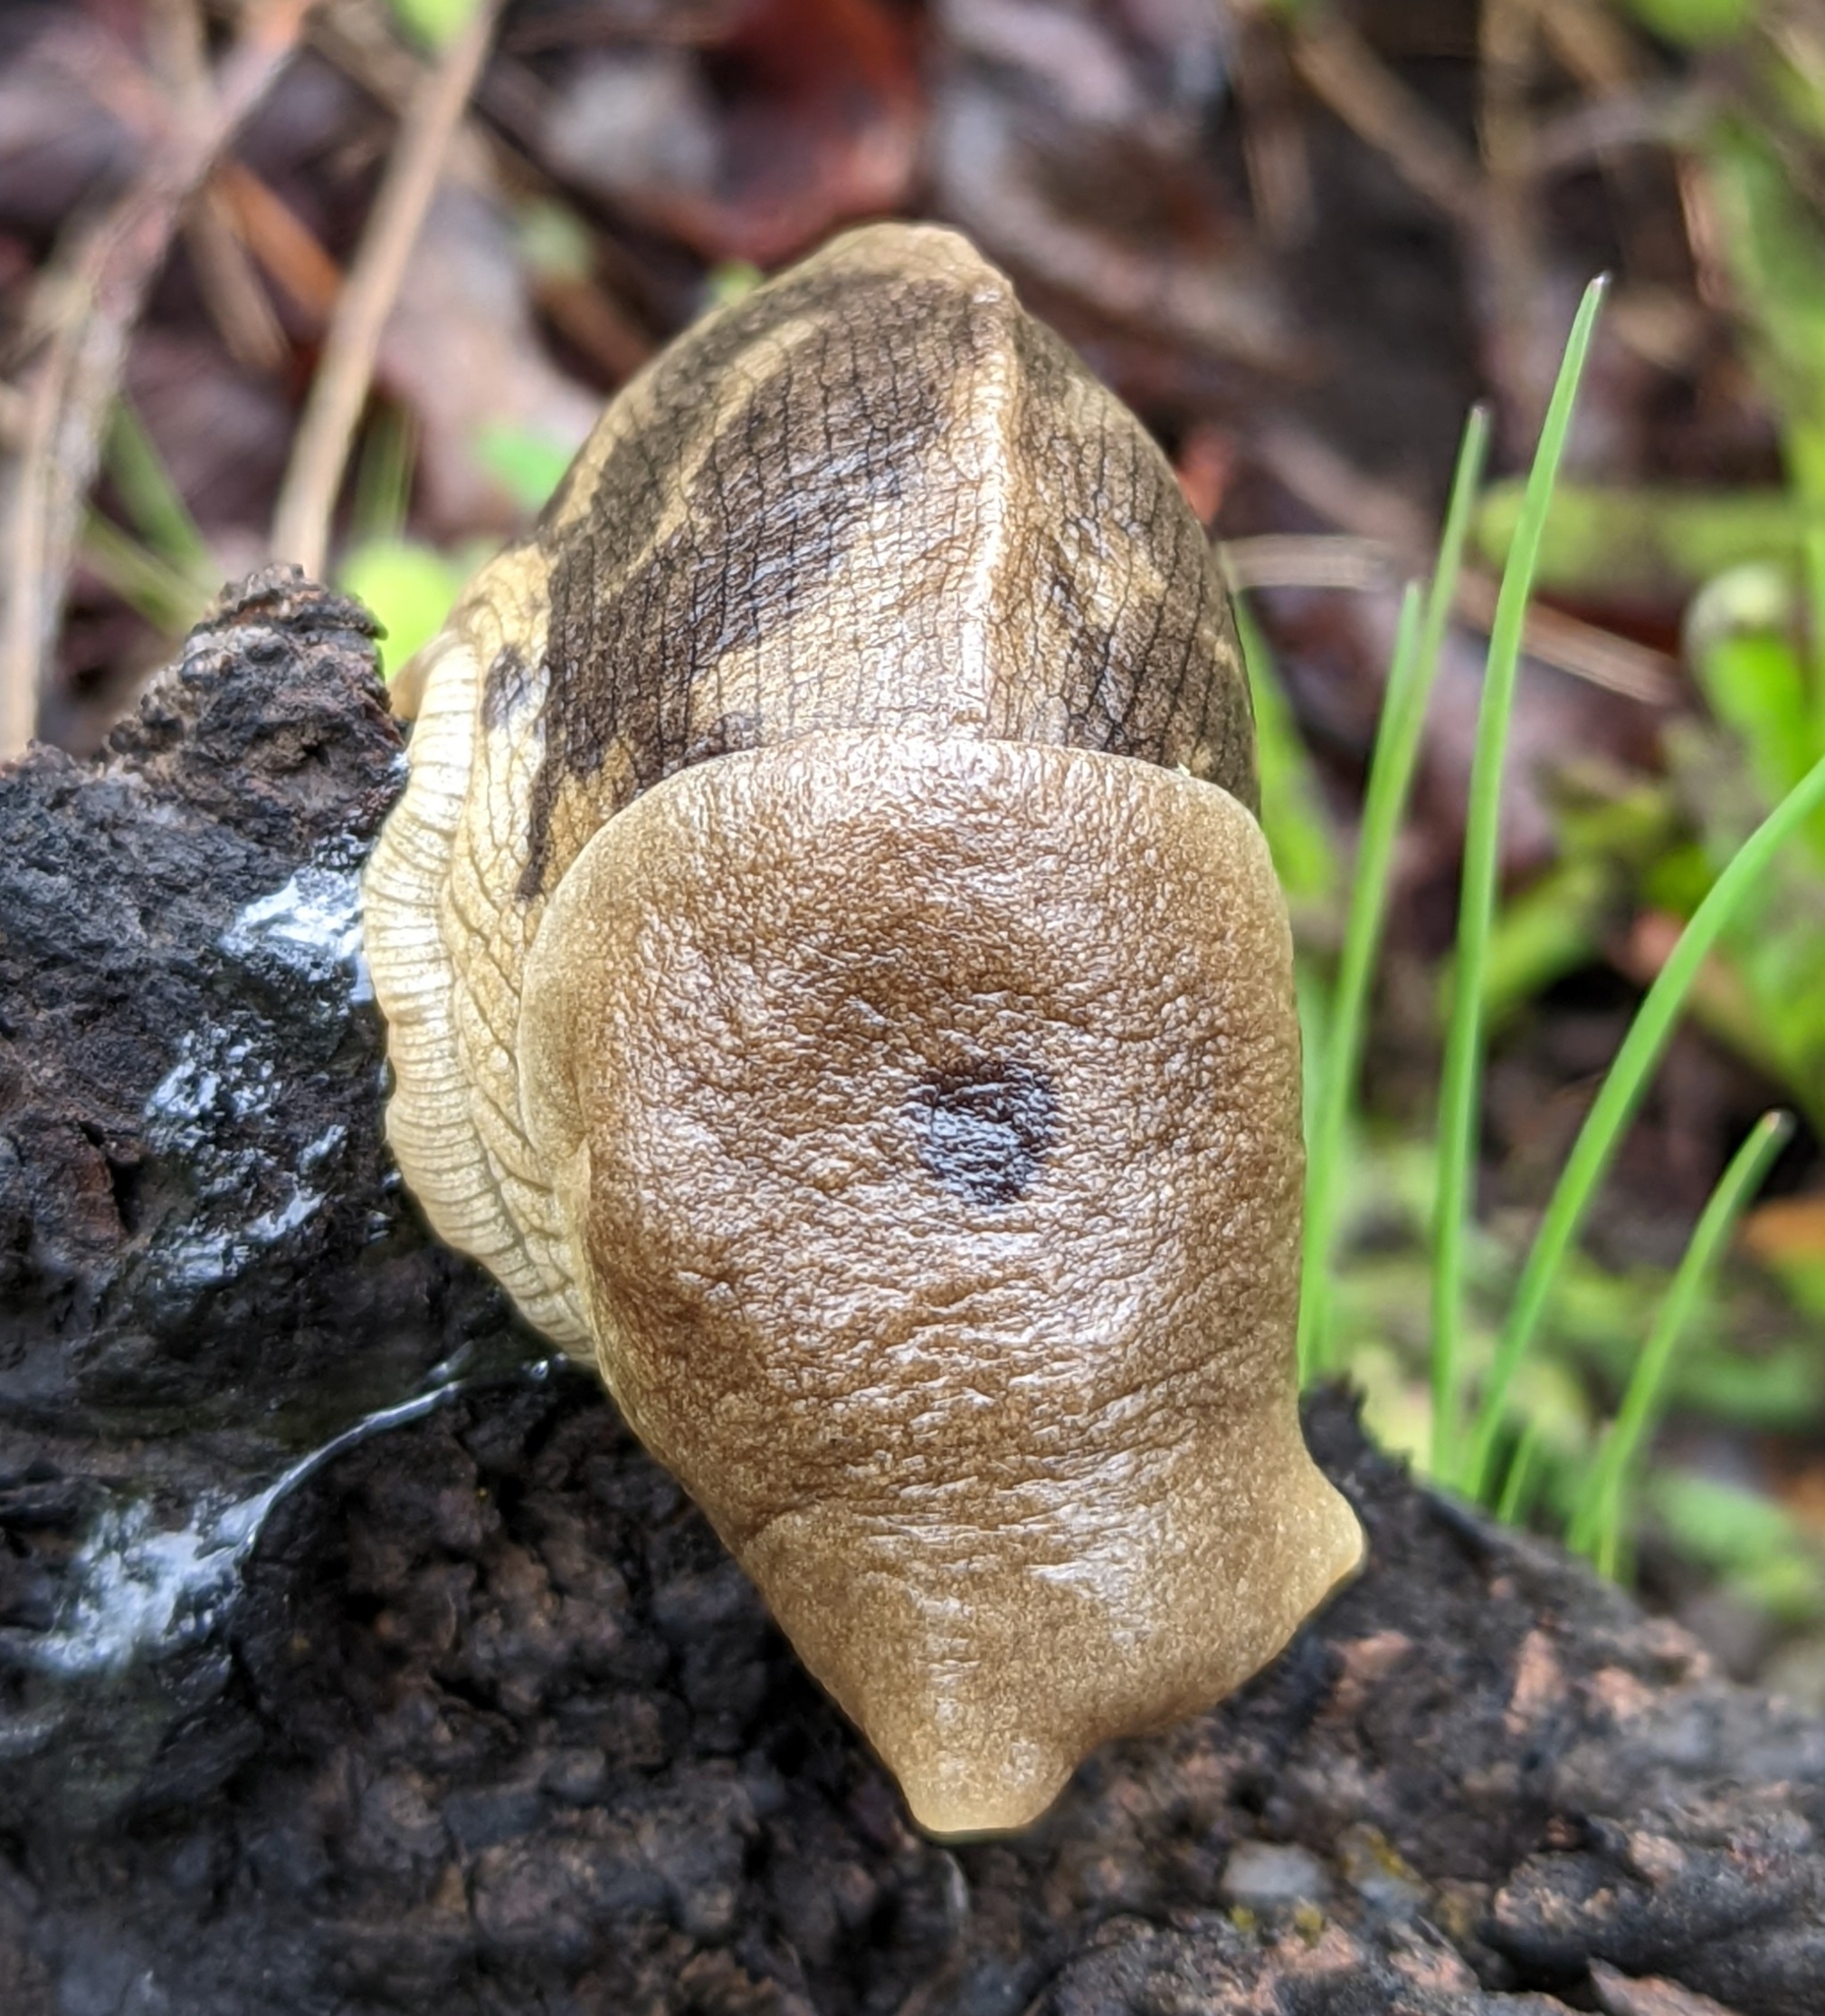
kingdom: Animalia
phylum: Mollusca
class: Gastropoda
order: Stylommatophora
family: Ariolimacidae
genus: Ariolimax
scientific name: Ariolimax columbianus
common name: Pacific banana slug
